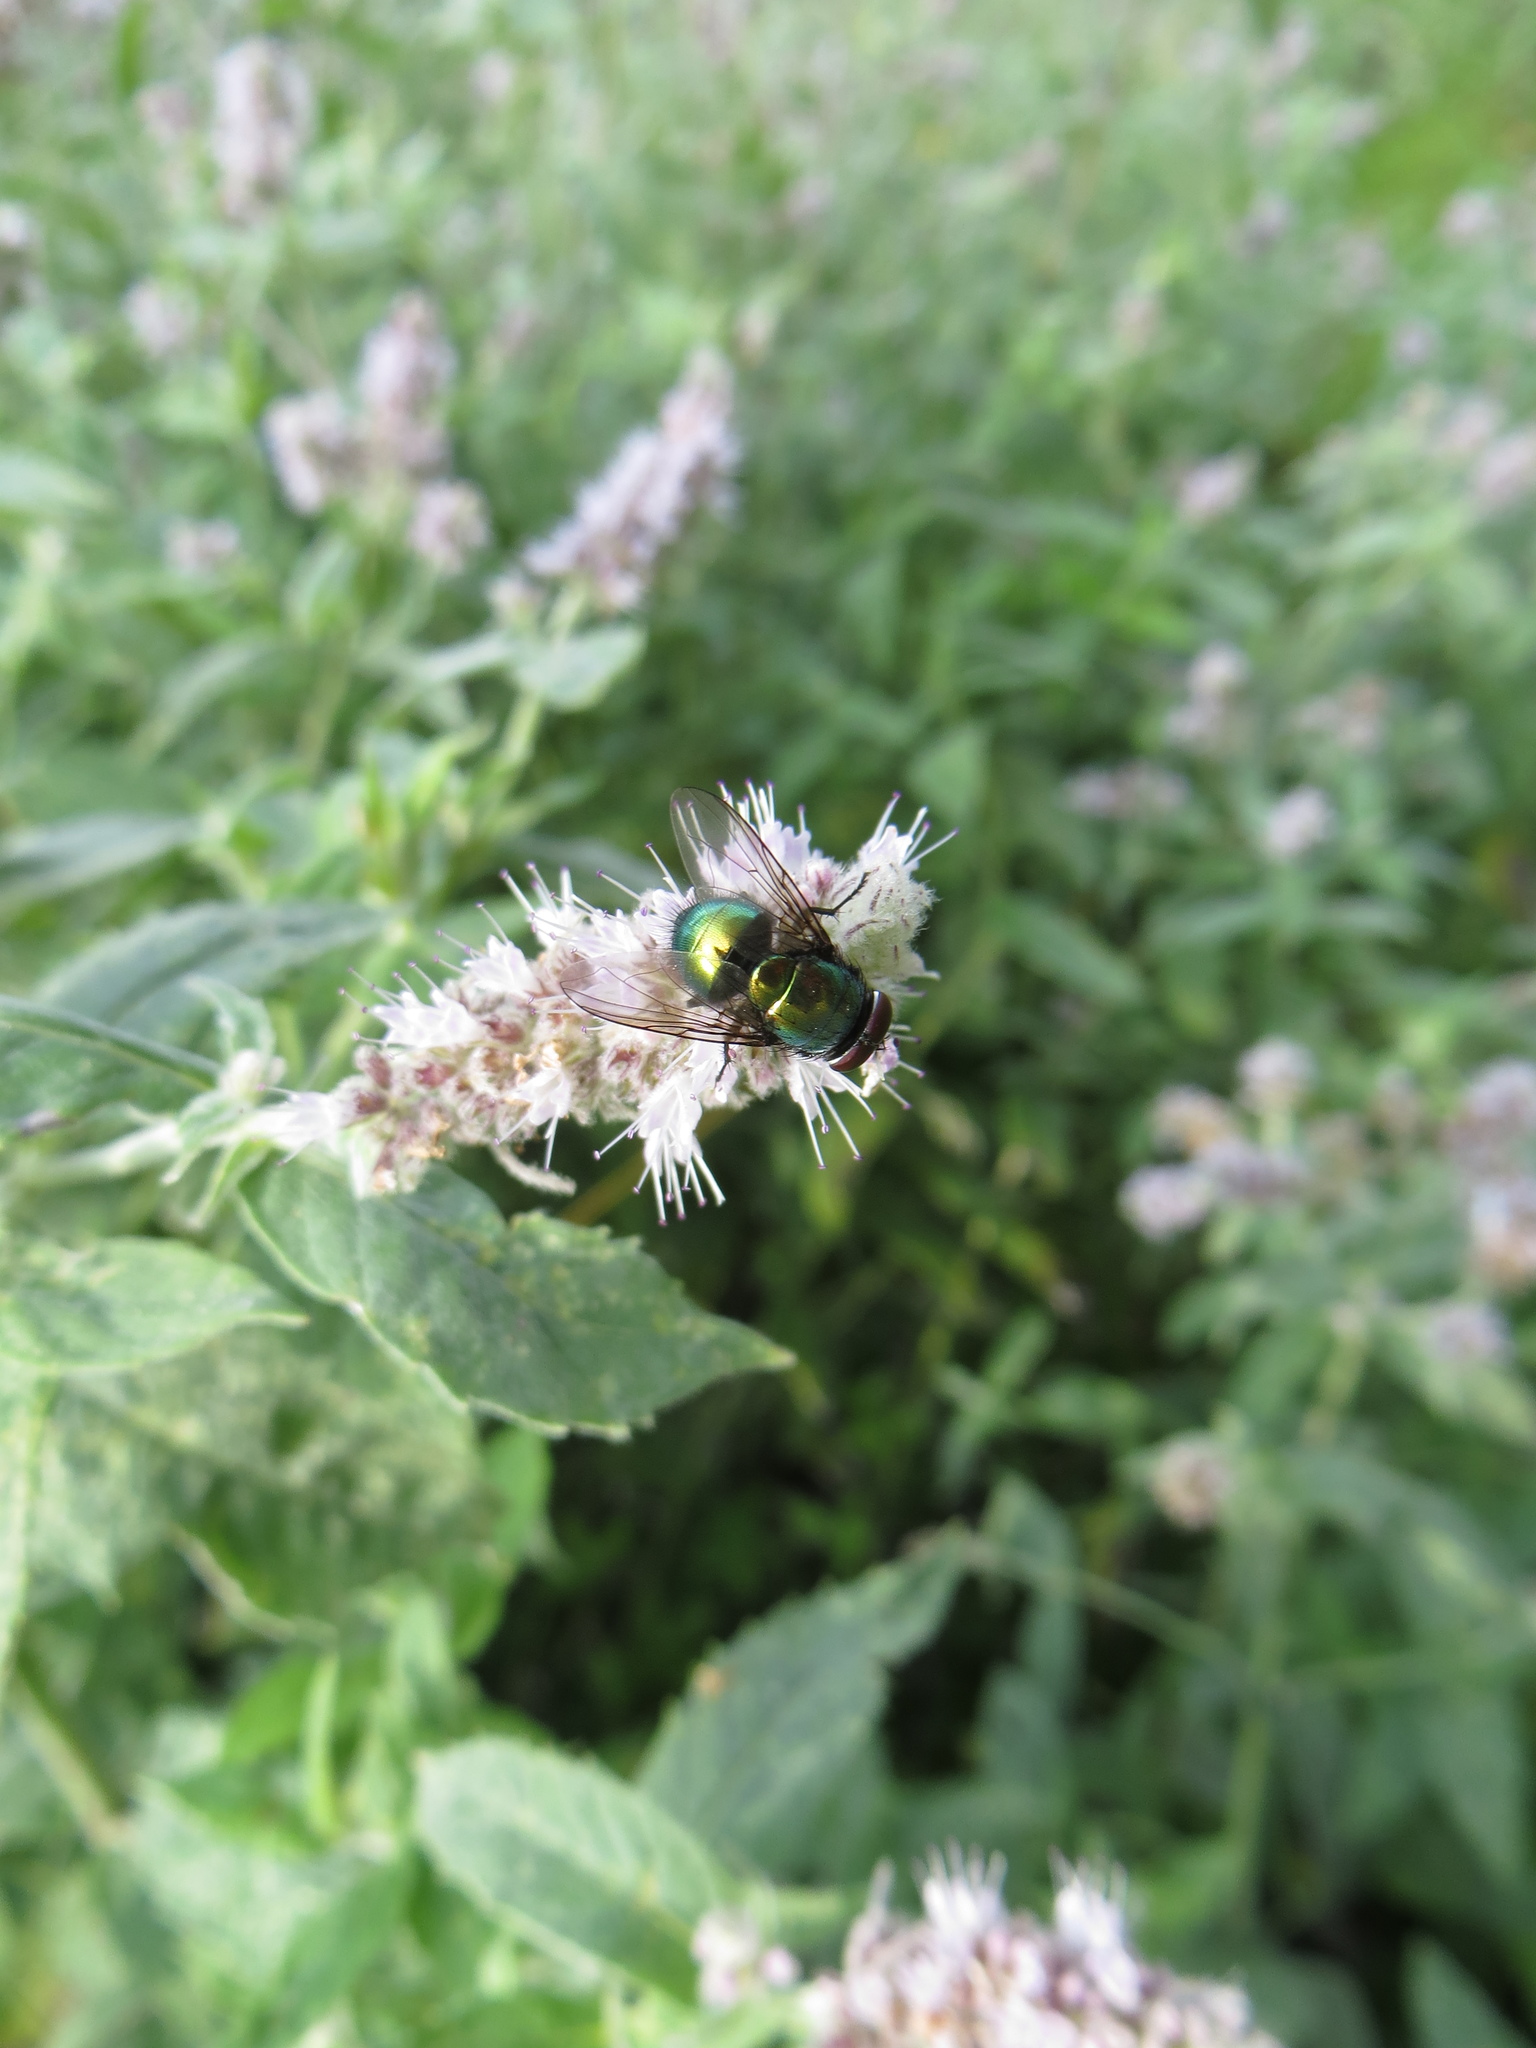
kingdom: Animalia
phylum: Arthropoda
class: Insecta
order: Diptera
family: Calliphoridae
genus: Lucilia
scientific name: Lucilia caesar
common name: Blow fly
